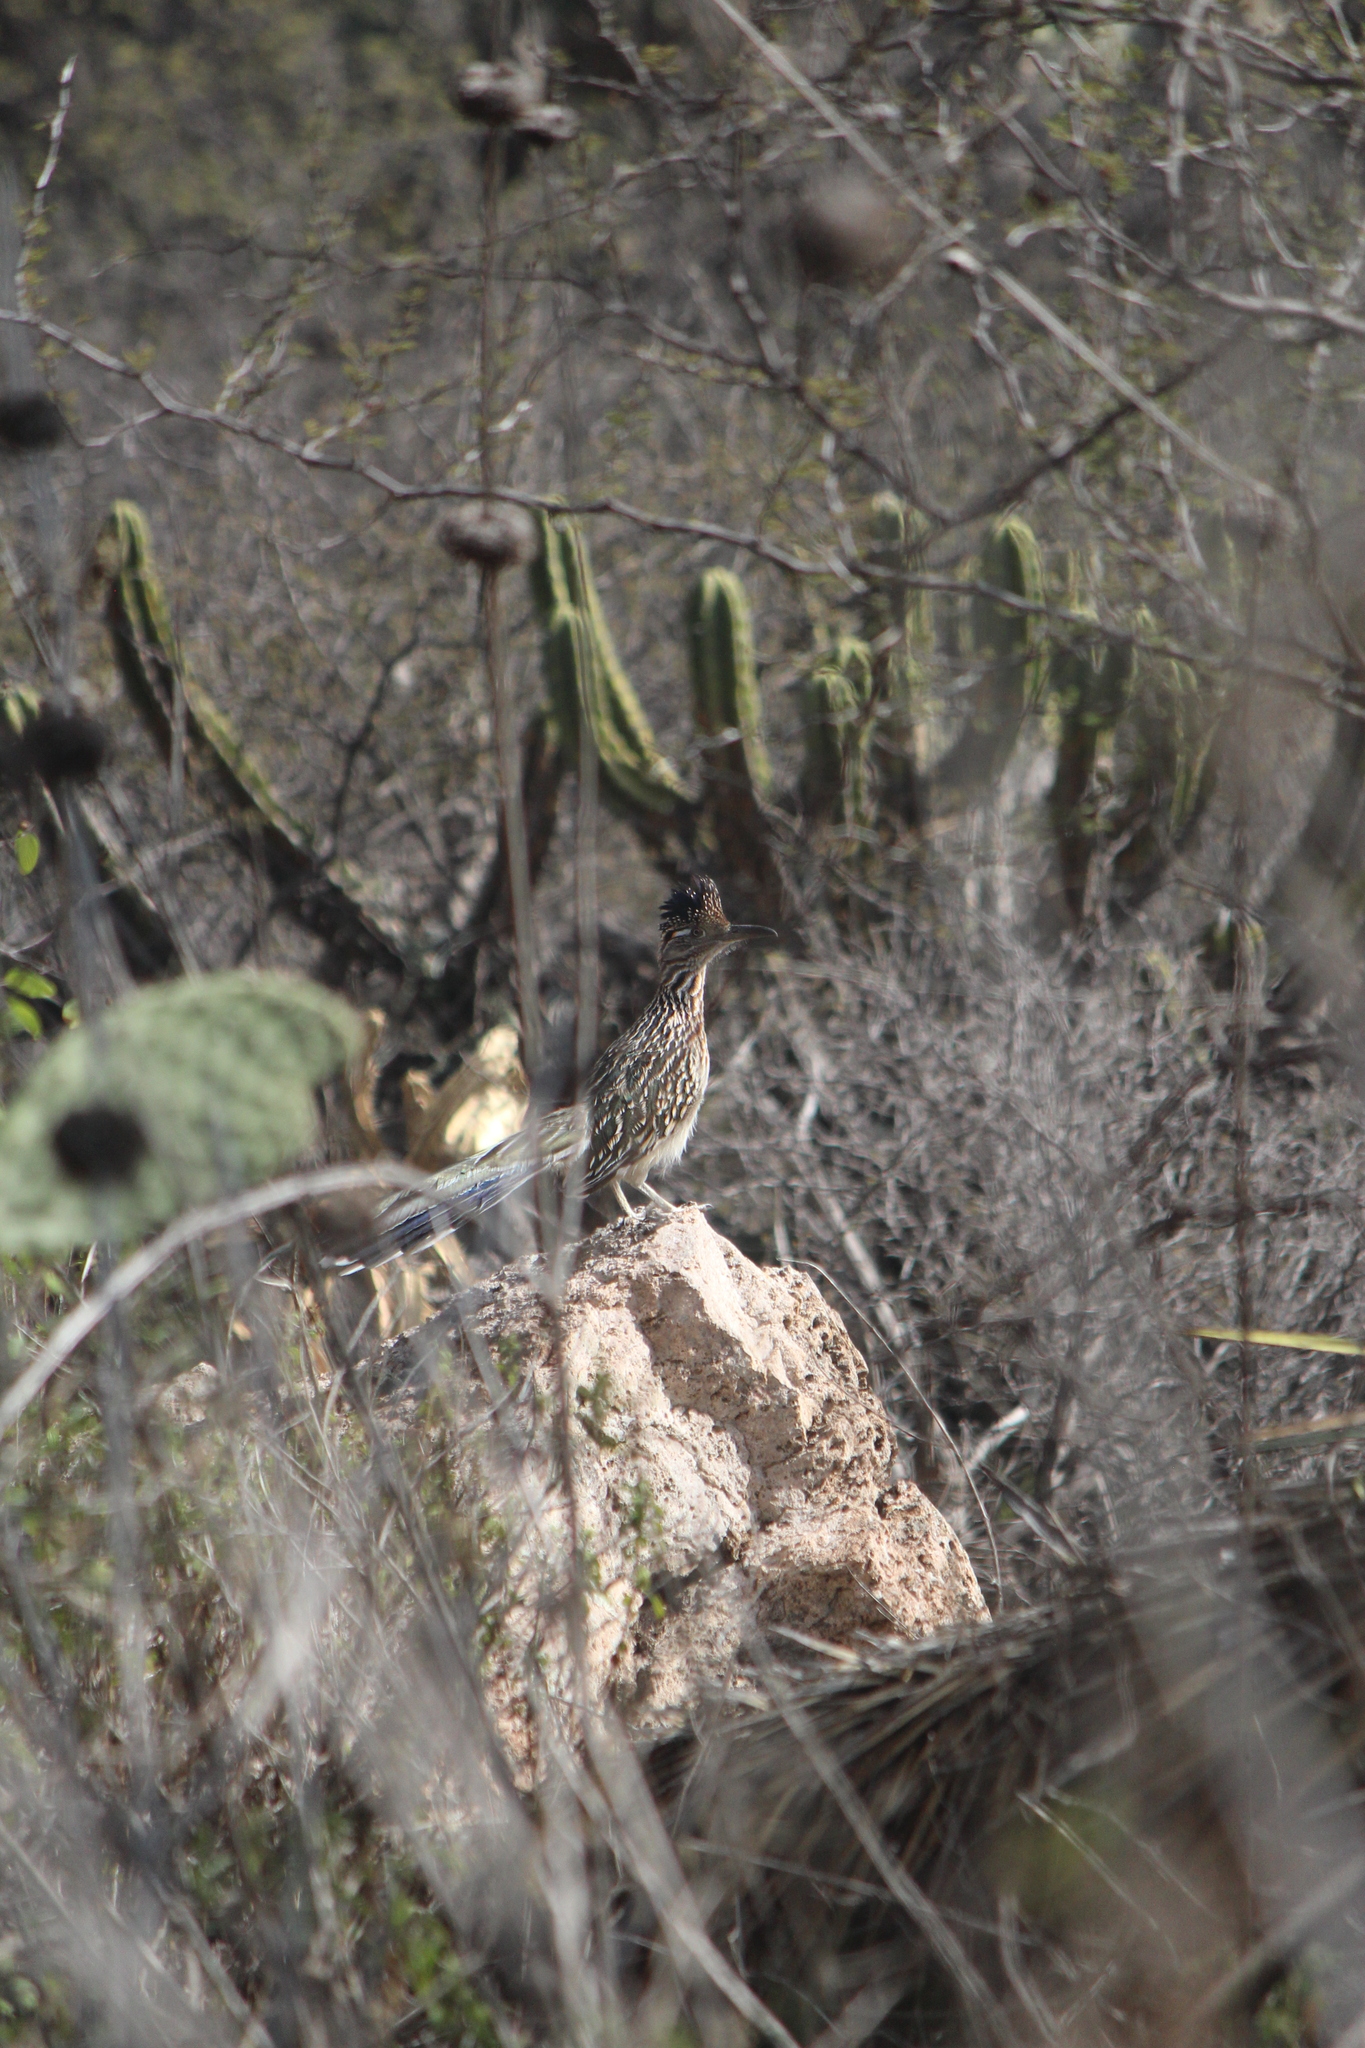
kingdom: Animalia
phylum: Chordata
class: Aves
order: Cuculiformes
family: Cuculidae
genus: Geococcyx
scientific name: Geococcyx californianus
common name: Greater roadrunner
